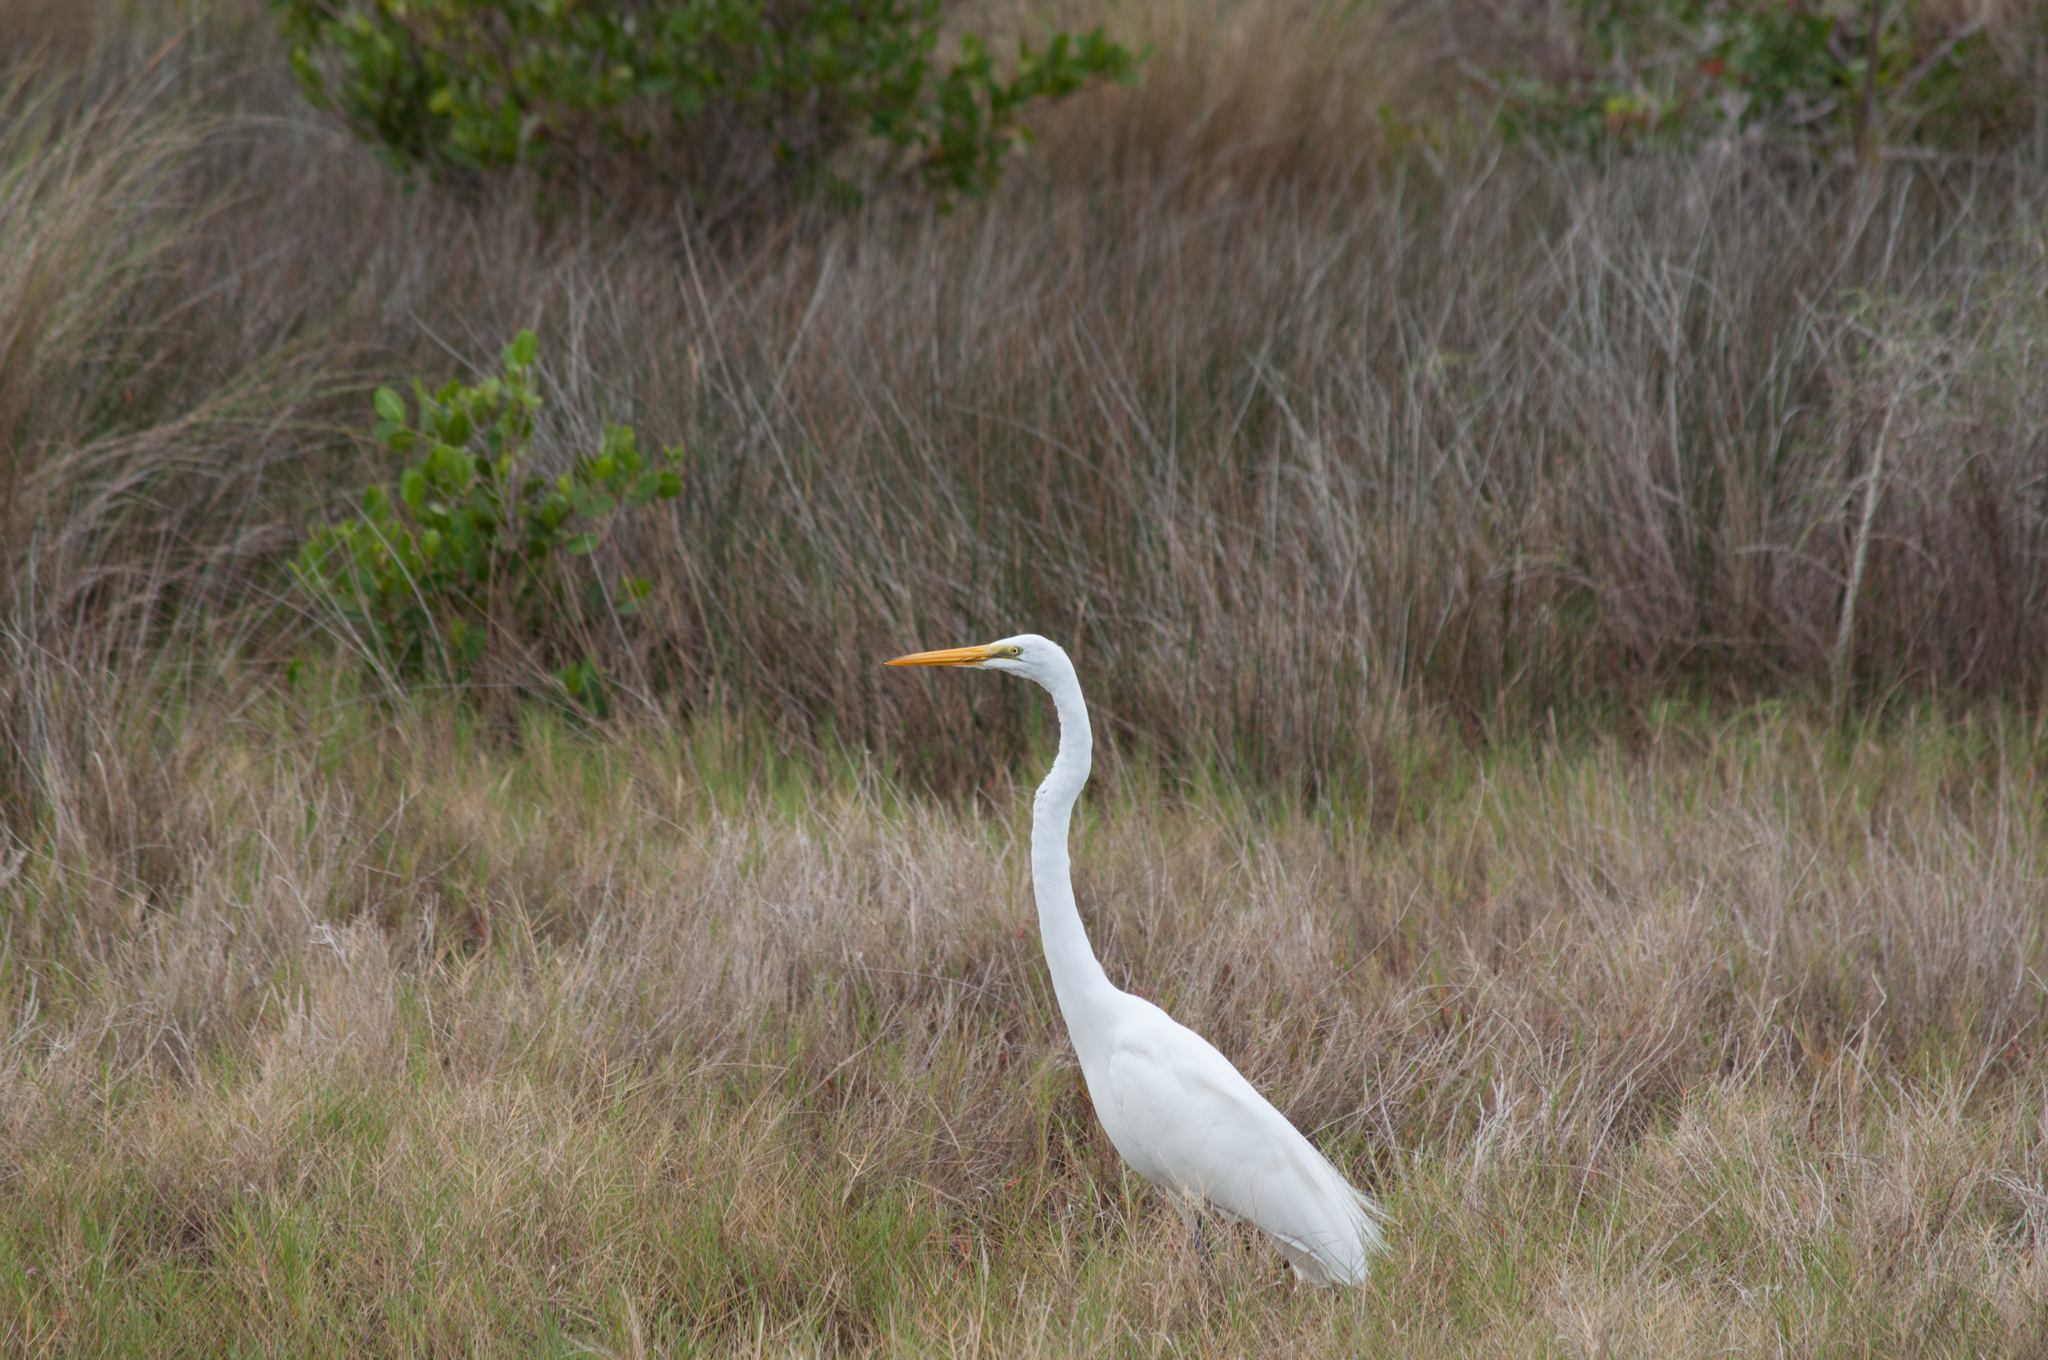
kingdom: Animalia
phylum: Chordata
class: Aves
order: Pelecaniformes
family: Ardeidae
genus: Ardea
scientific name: Ardea alba
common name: Great egret
